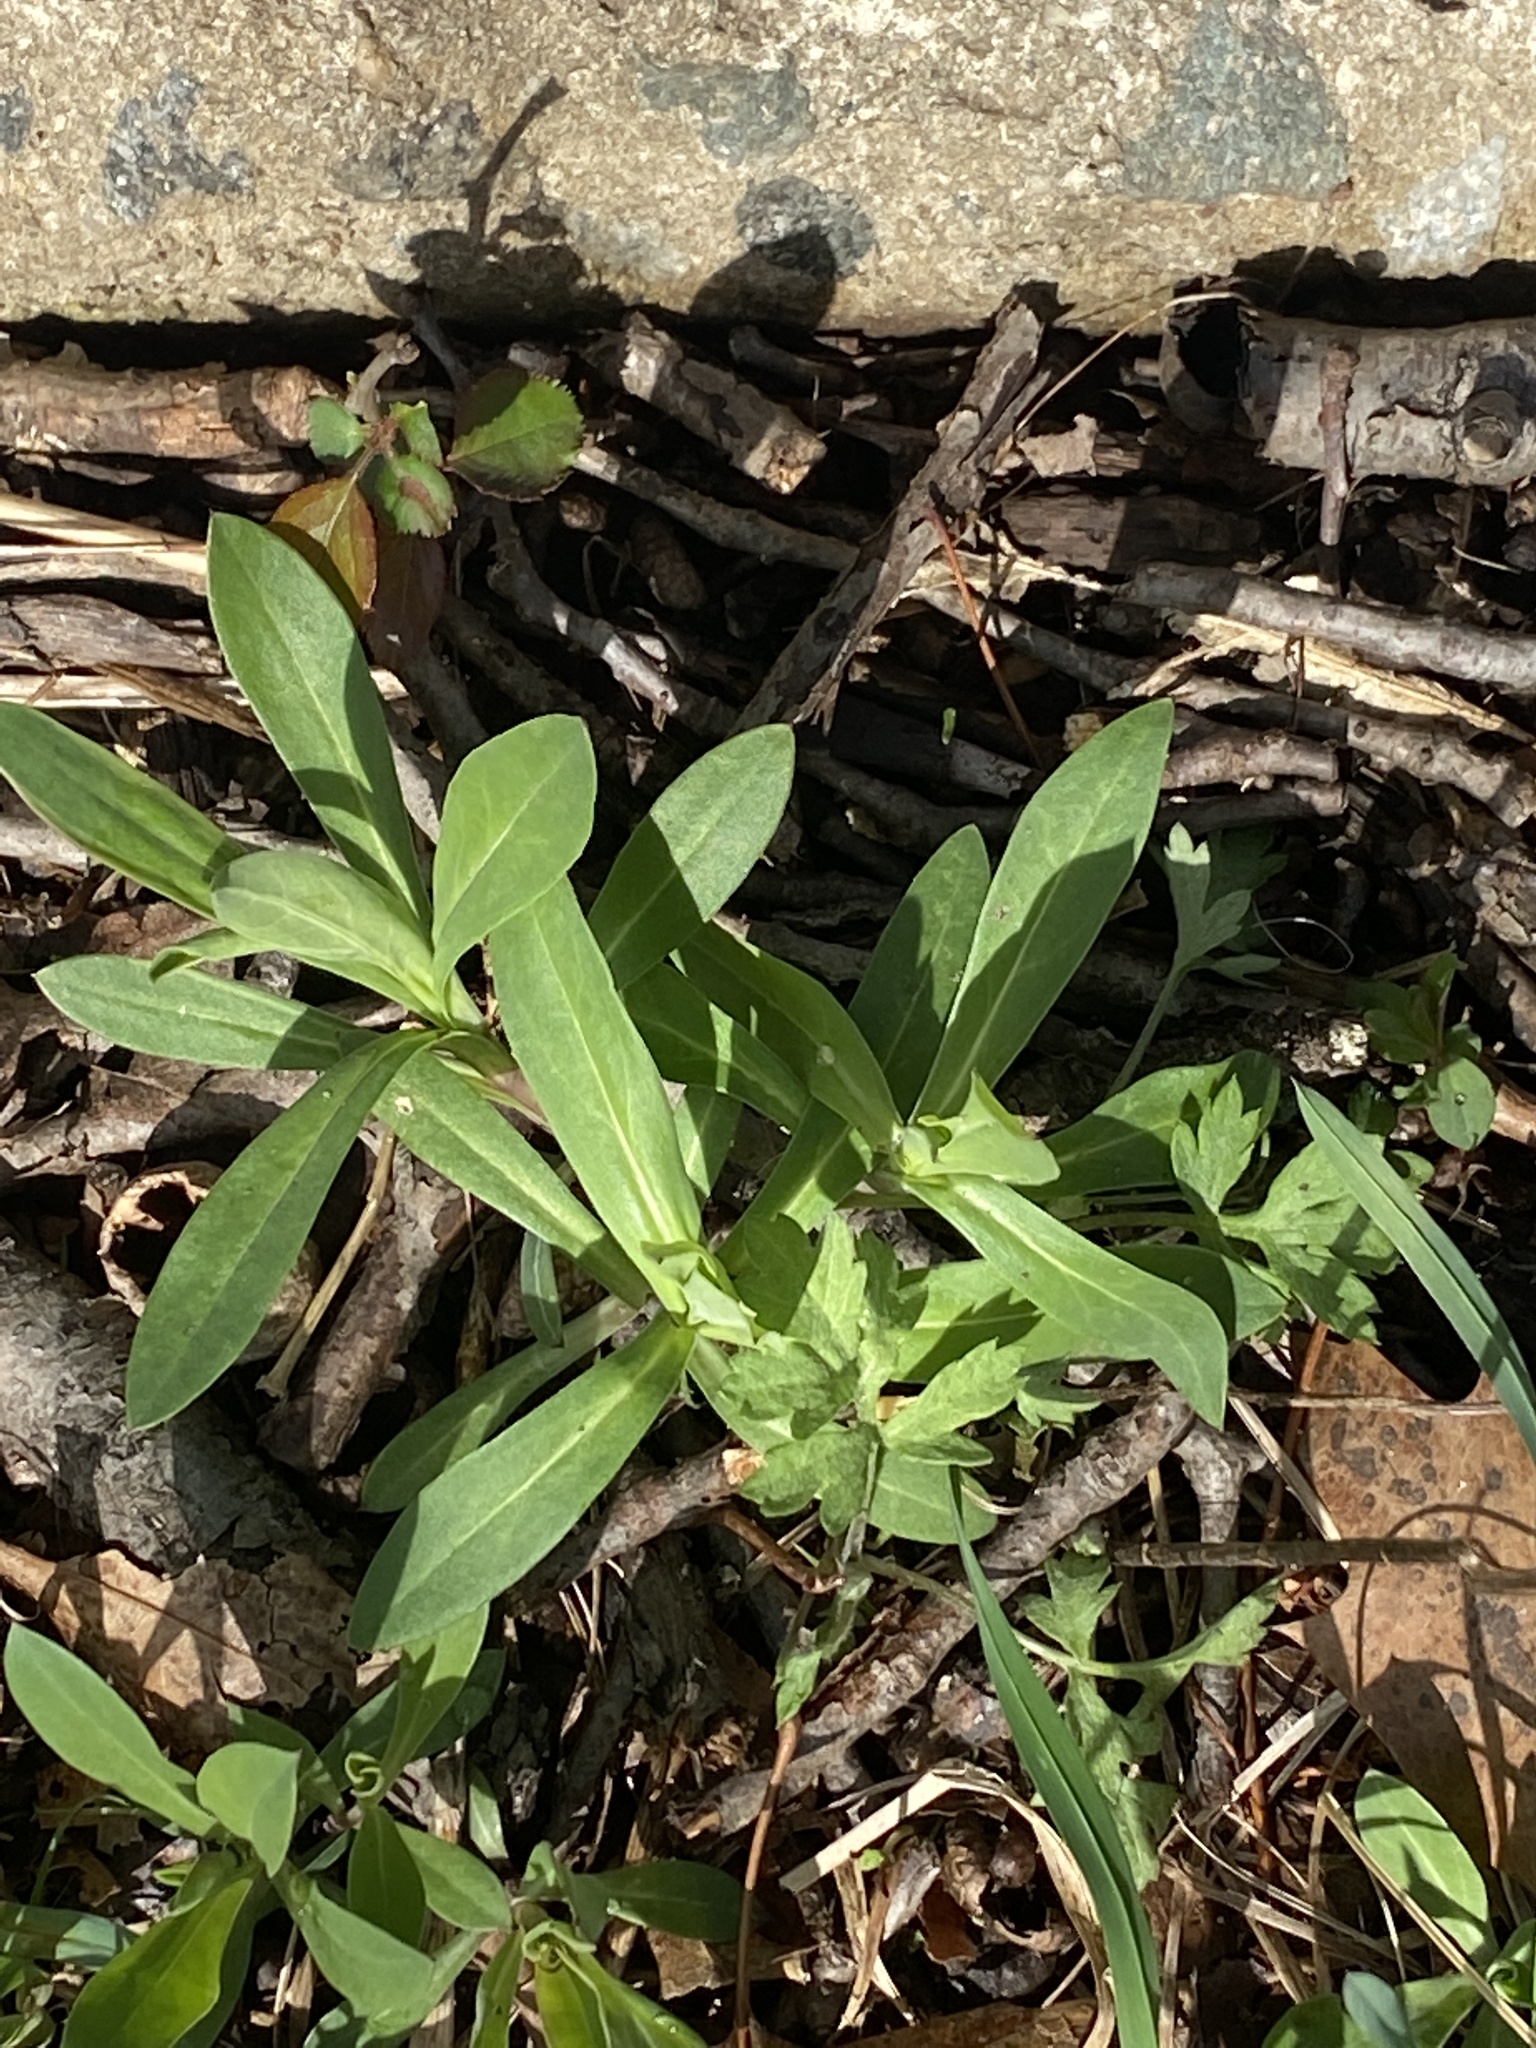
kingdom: Plantae
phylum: Tracheophyta
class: Magnoliopsida
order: Caryophyllales
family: Caryophyllaceae
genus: Silene
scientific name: Silene vulgaris
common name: Bladder campion
